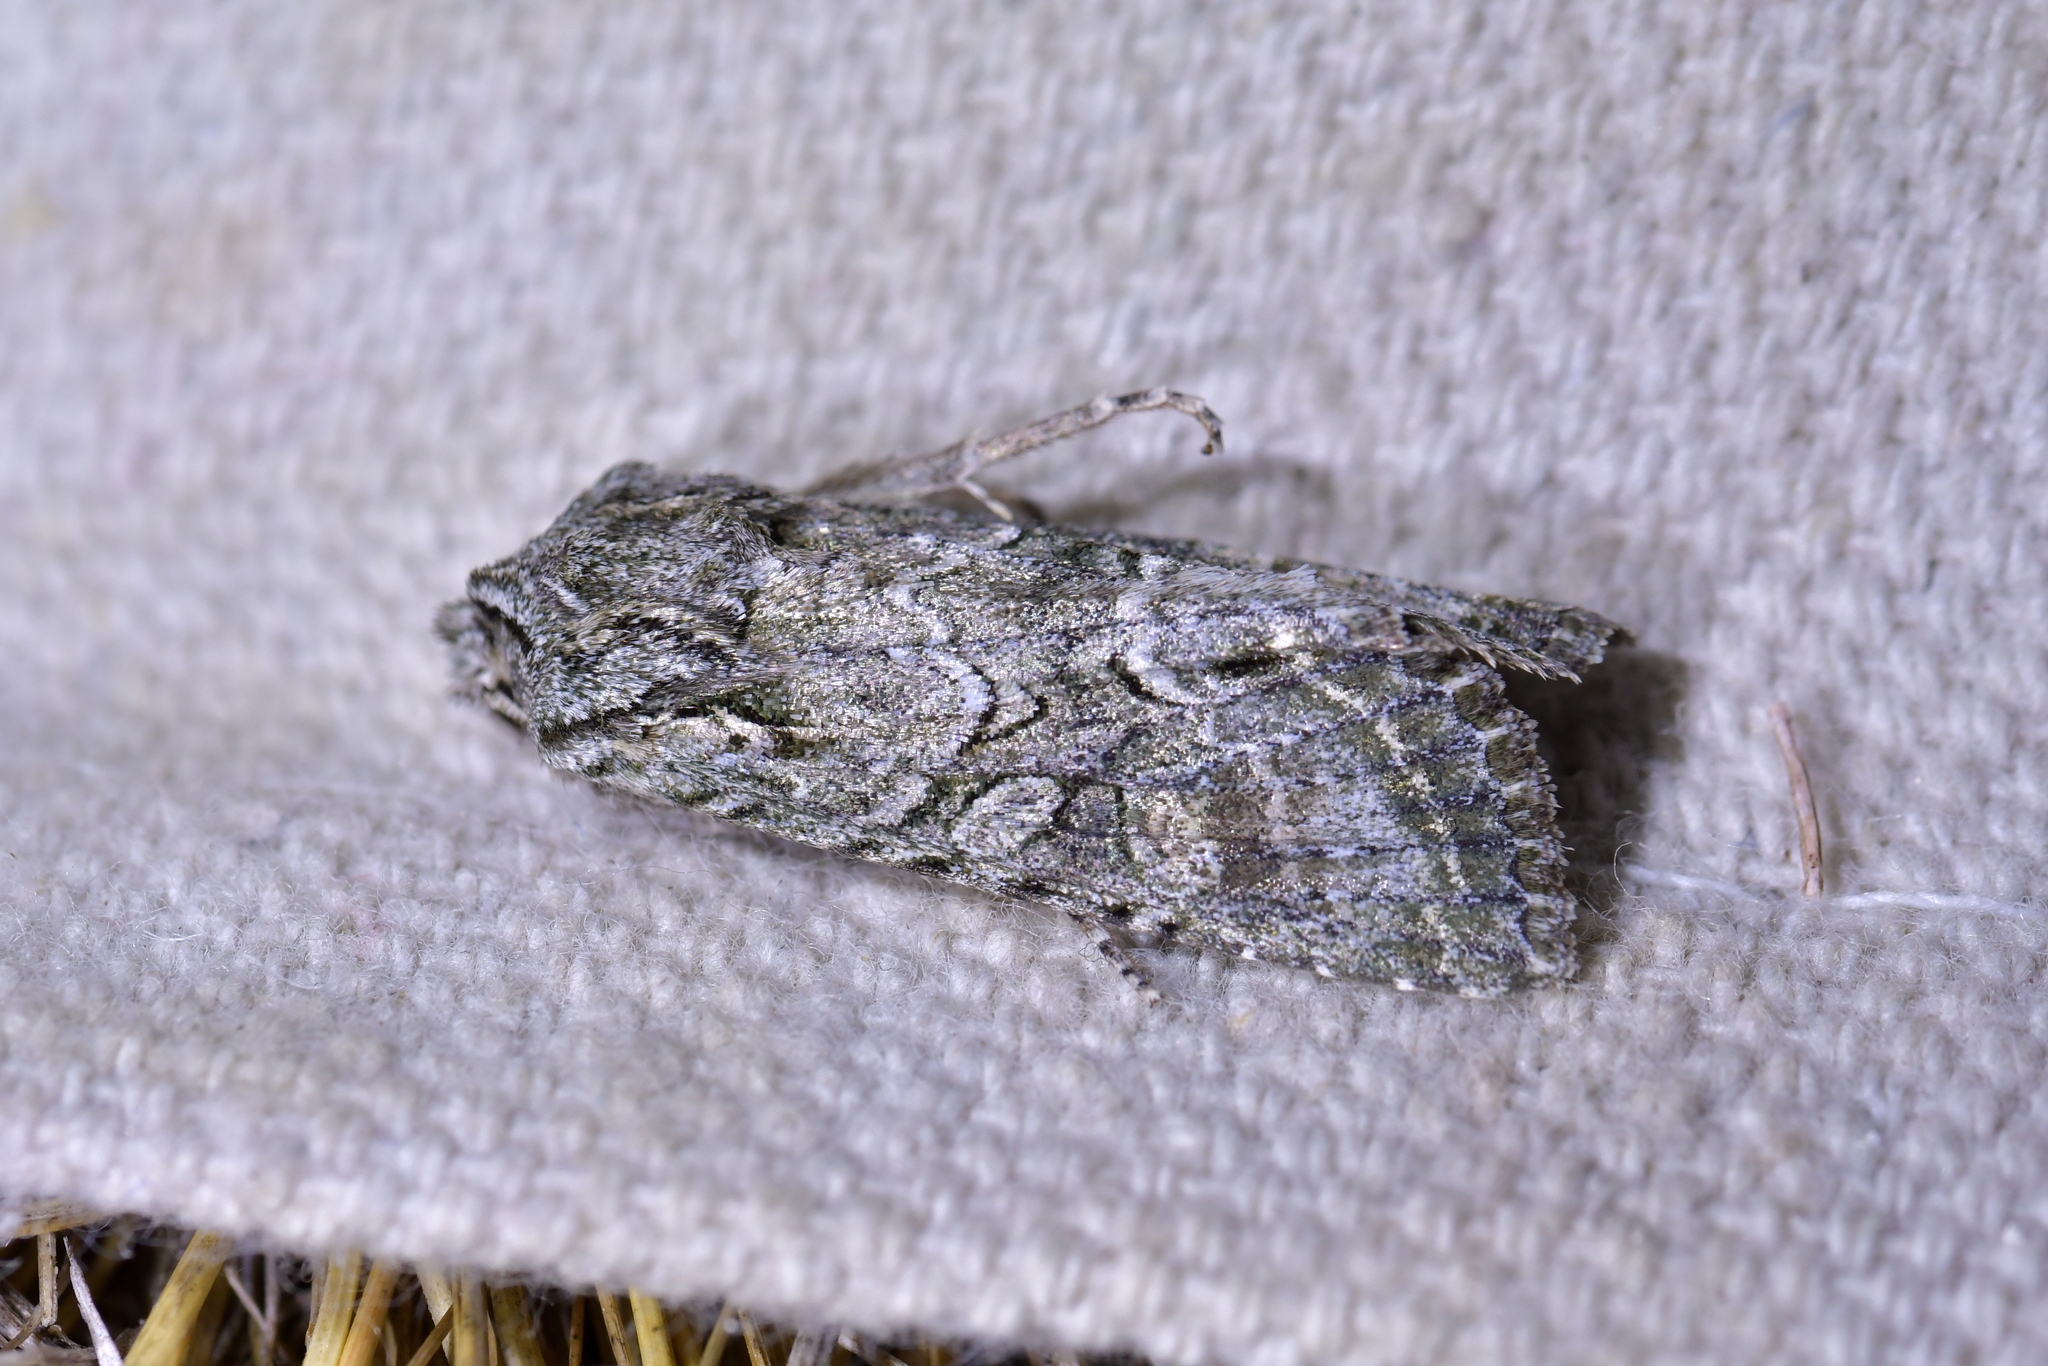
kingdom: Animalia
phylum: Arthropoda
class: Insecta
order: Lepidoptera
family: Noctuidae
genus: Ichneutica
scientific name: Ichneutica mutans
